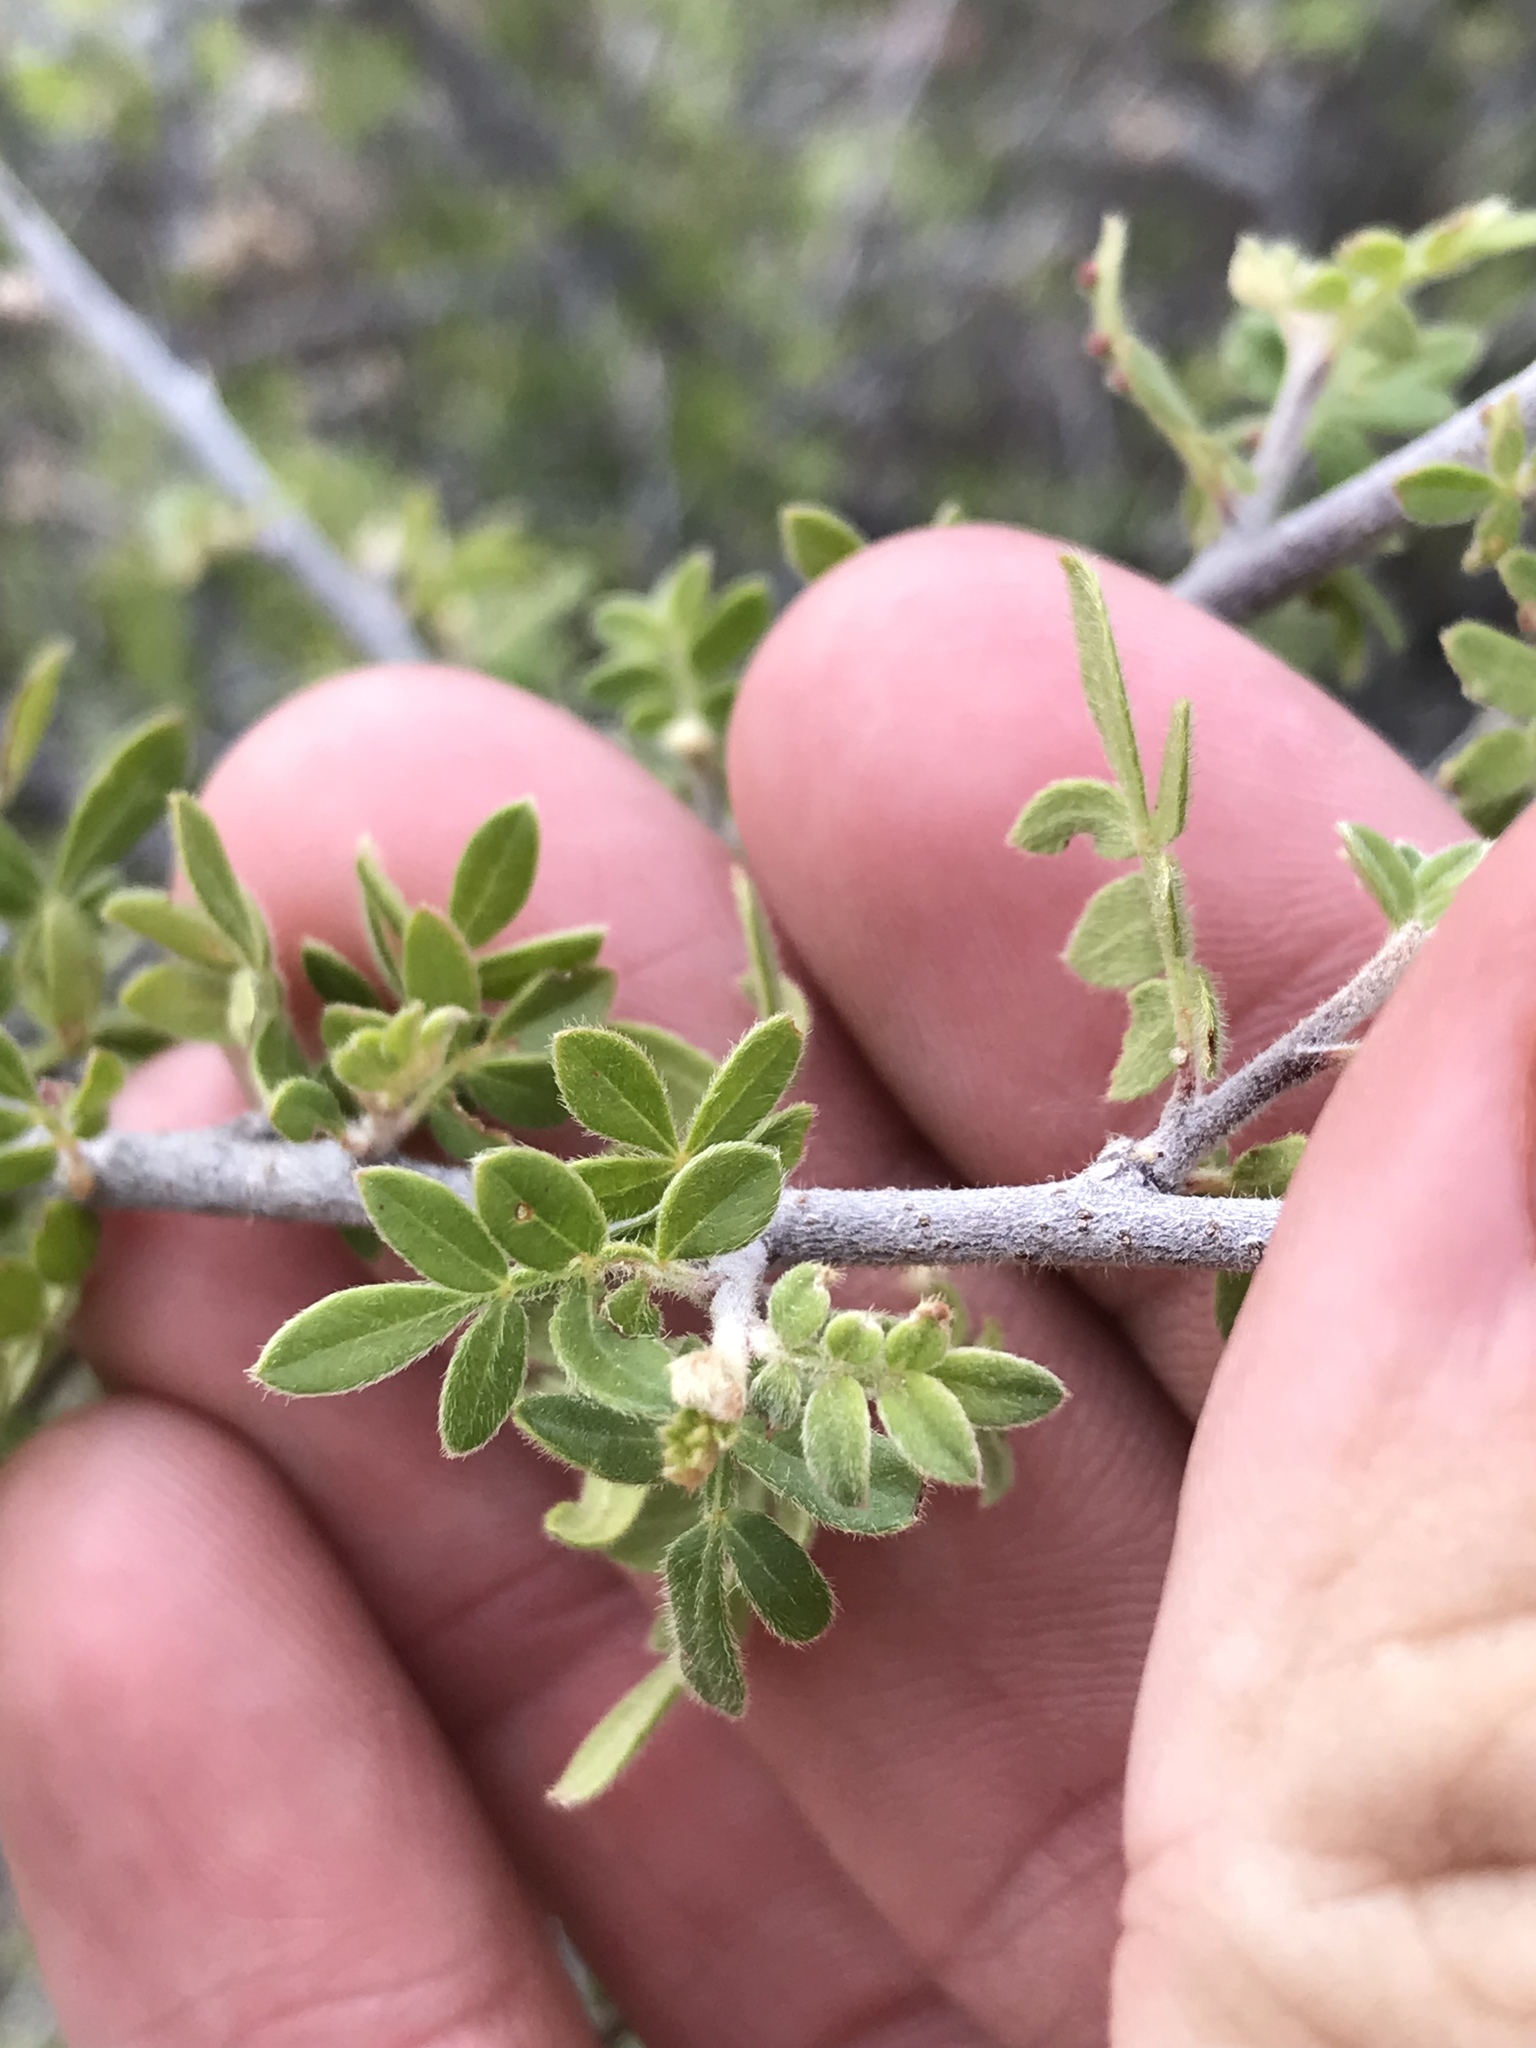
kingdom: Plantae
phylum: Tracheophyta
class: Magnoliopsida
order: Sapindales
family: Anacardiaceae
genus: Rhus
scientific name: Rhus microphylla
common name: Desert sumac
